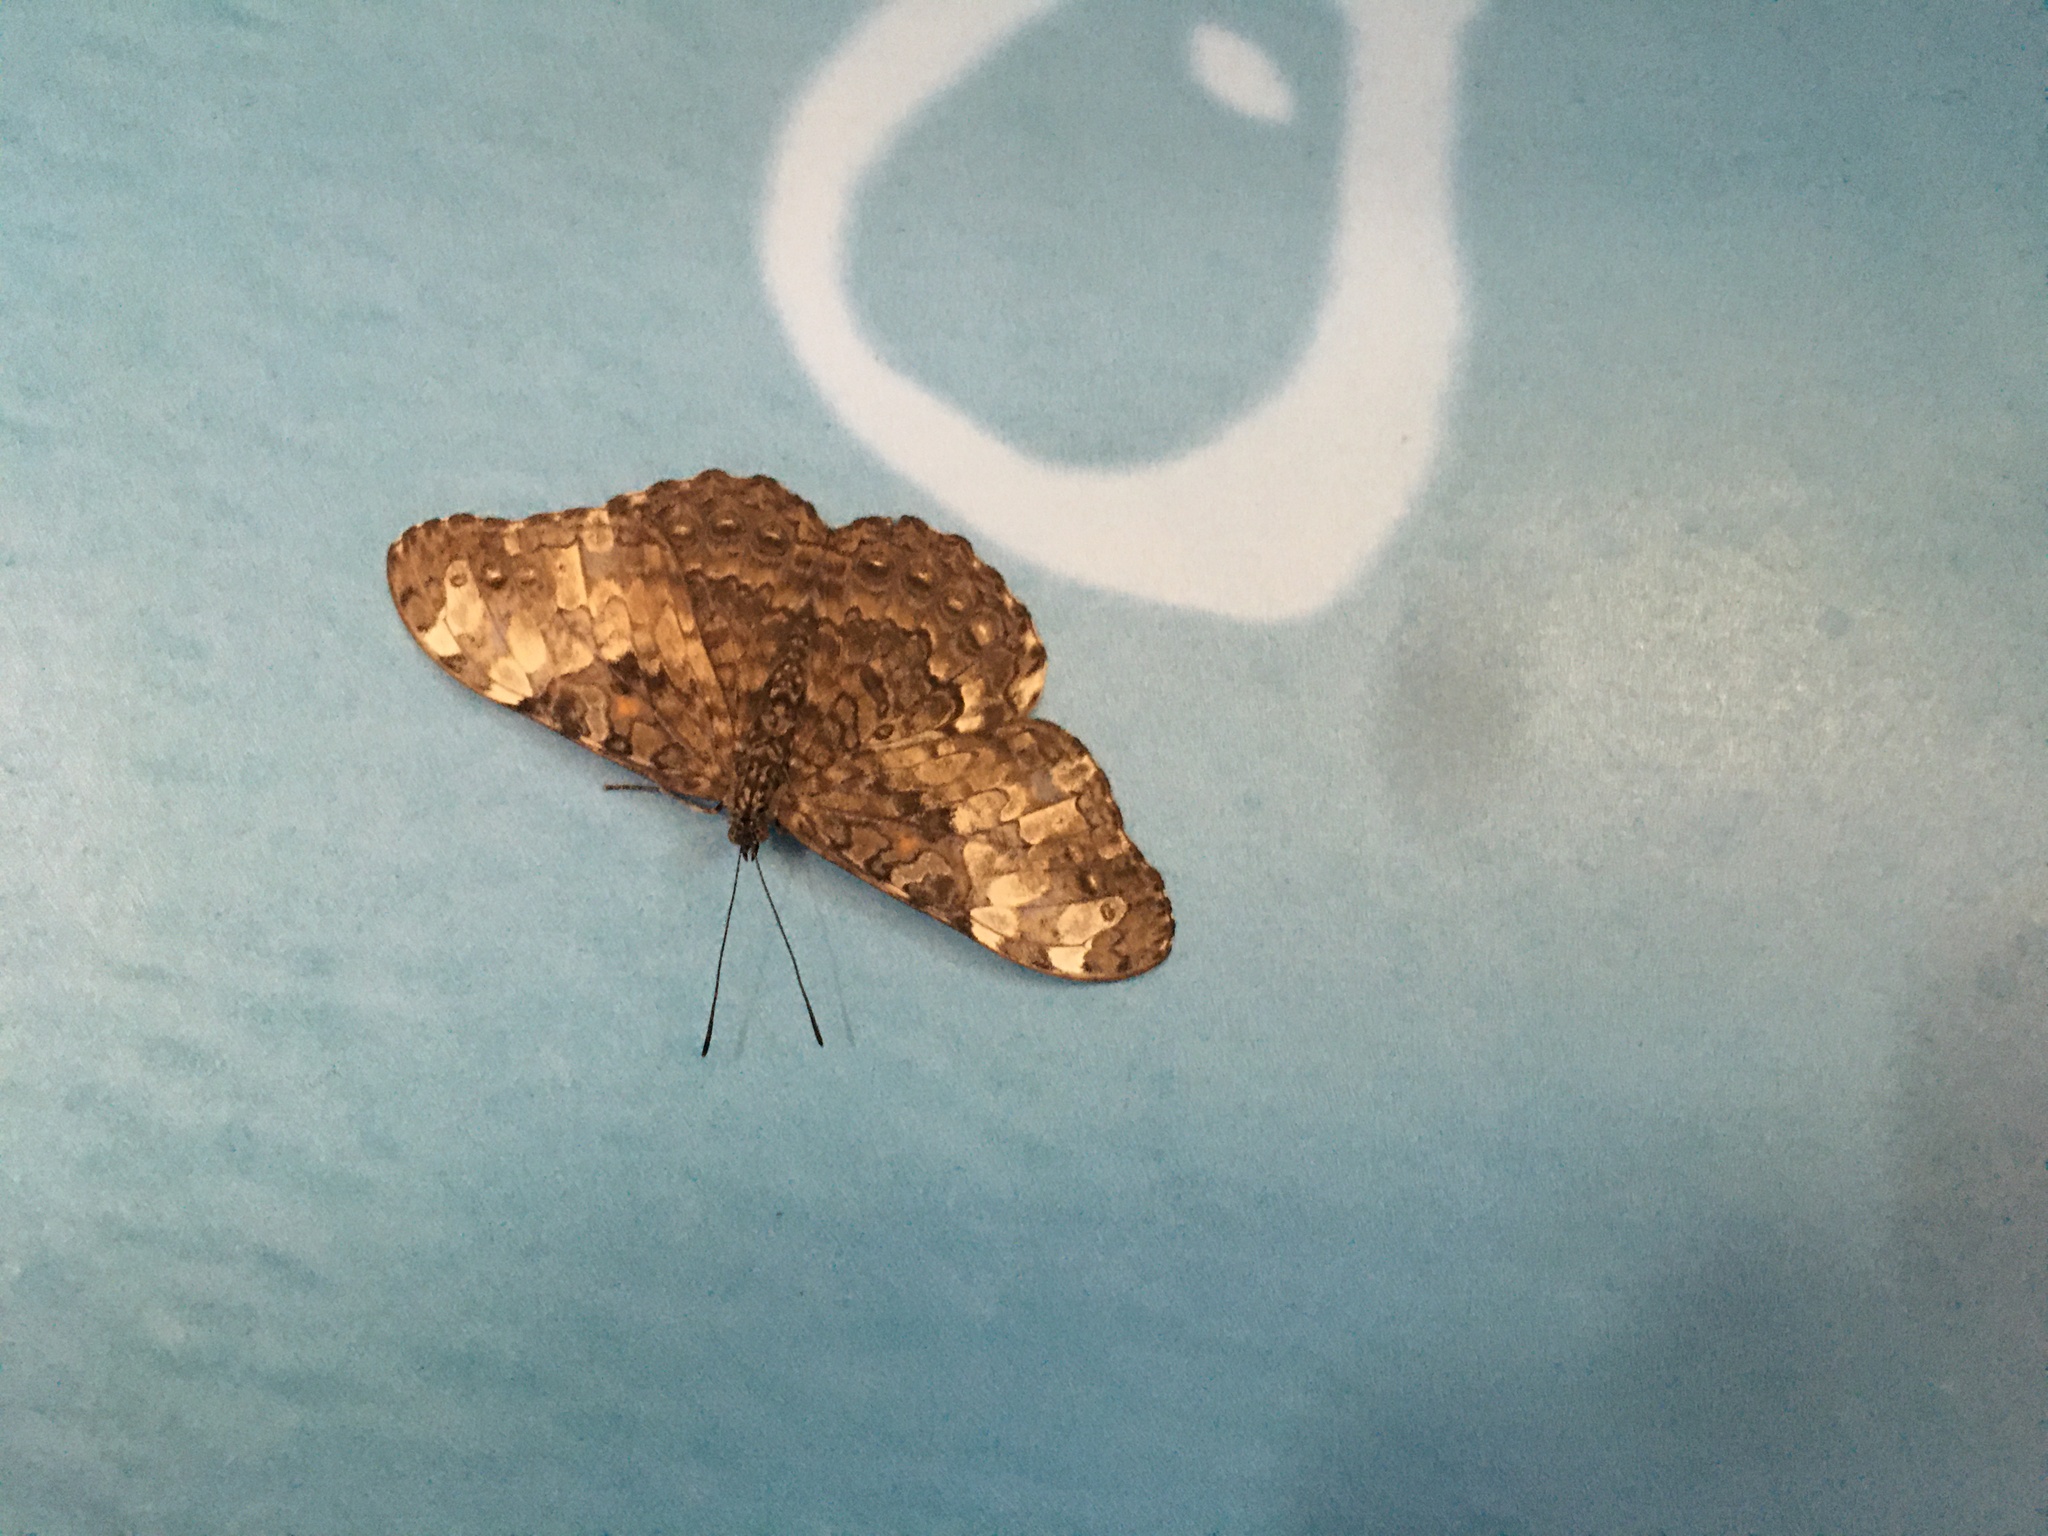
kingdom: Animalia
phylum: Arthropoda
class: Insecta
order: Lepidoptera
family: Nymphalidae
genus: Hamadryas
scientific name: Hamadryas epinome
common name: Epinome cracker
